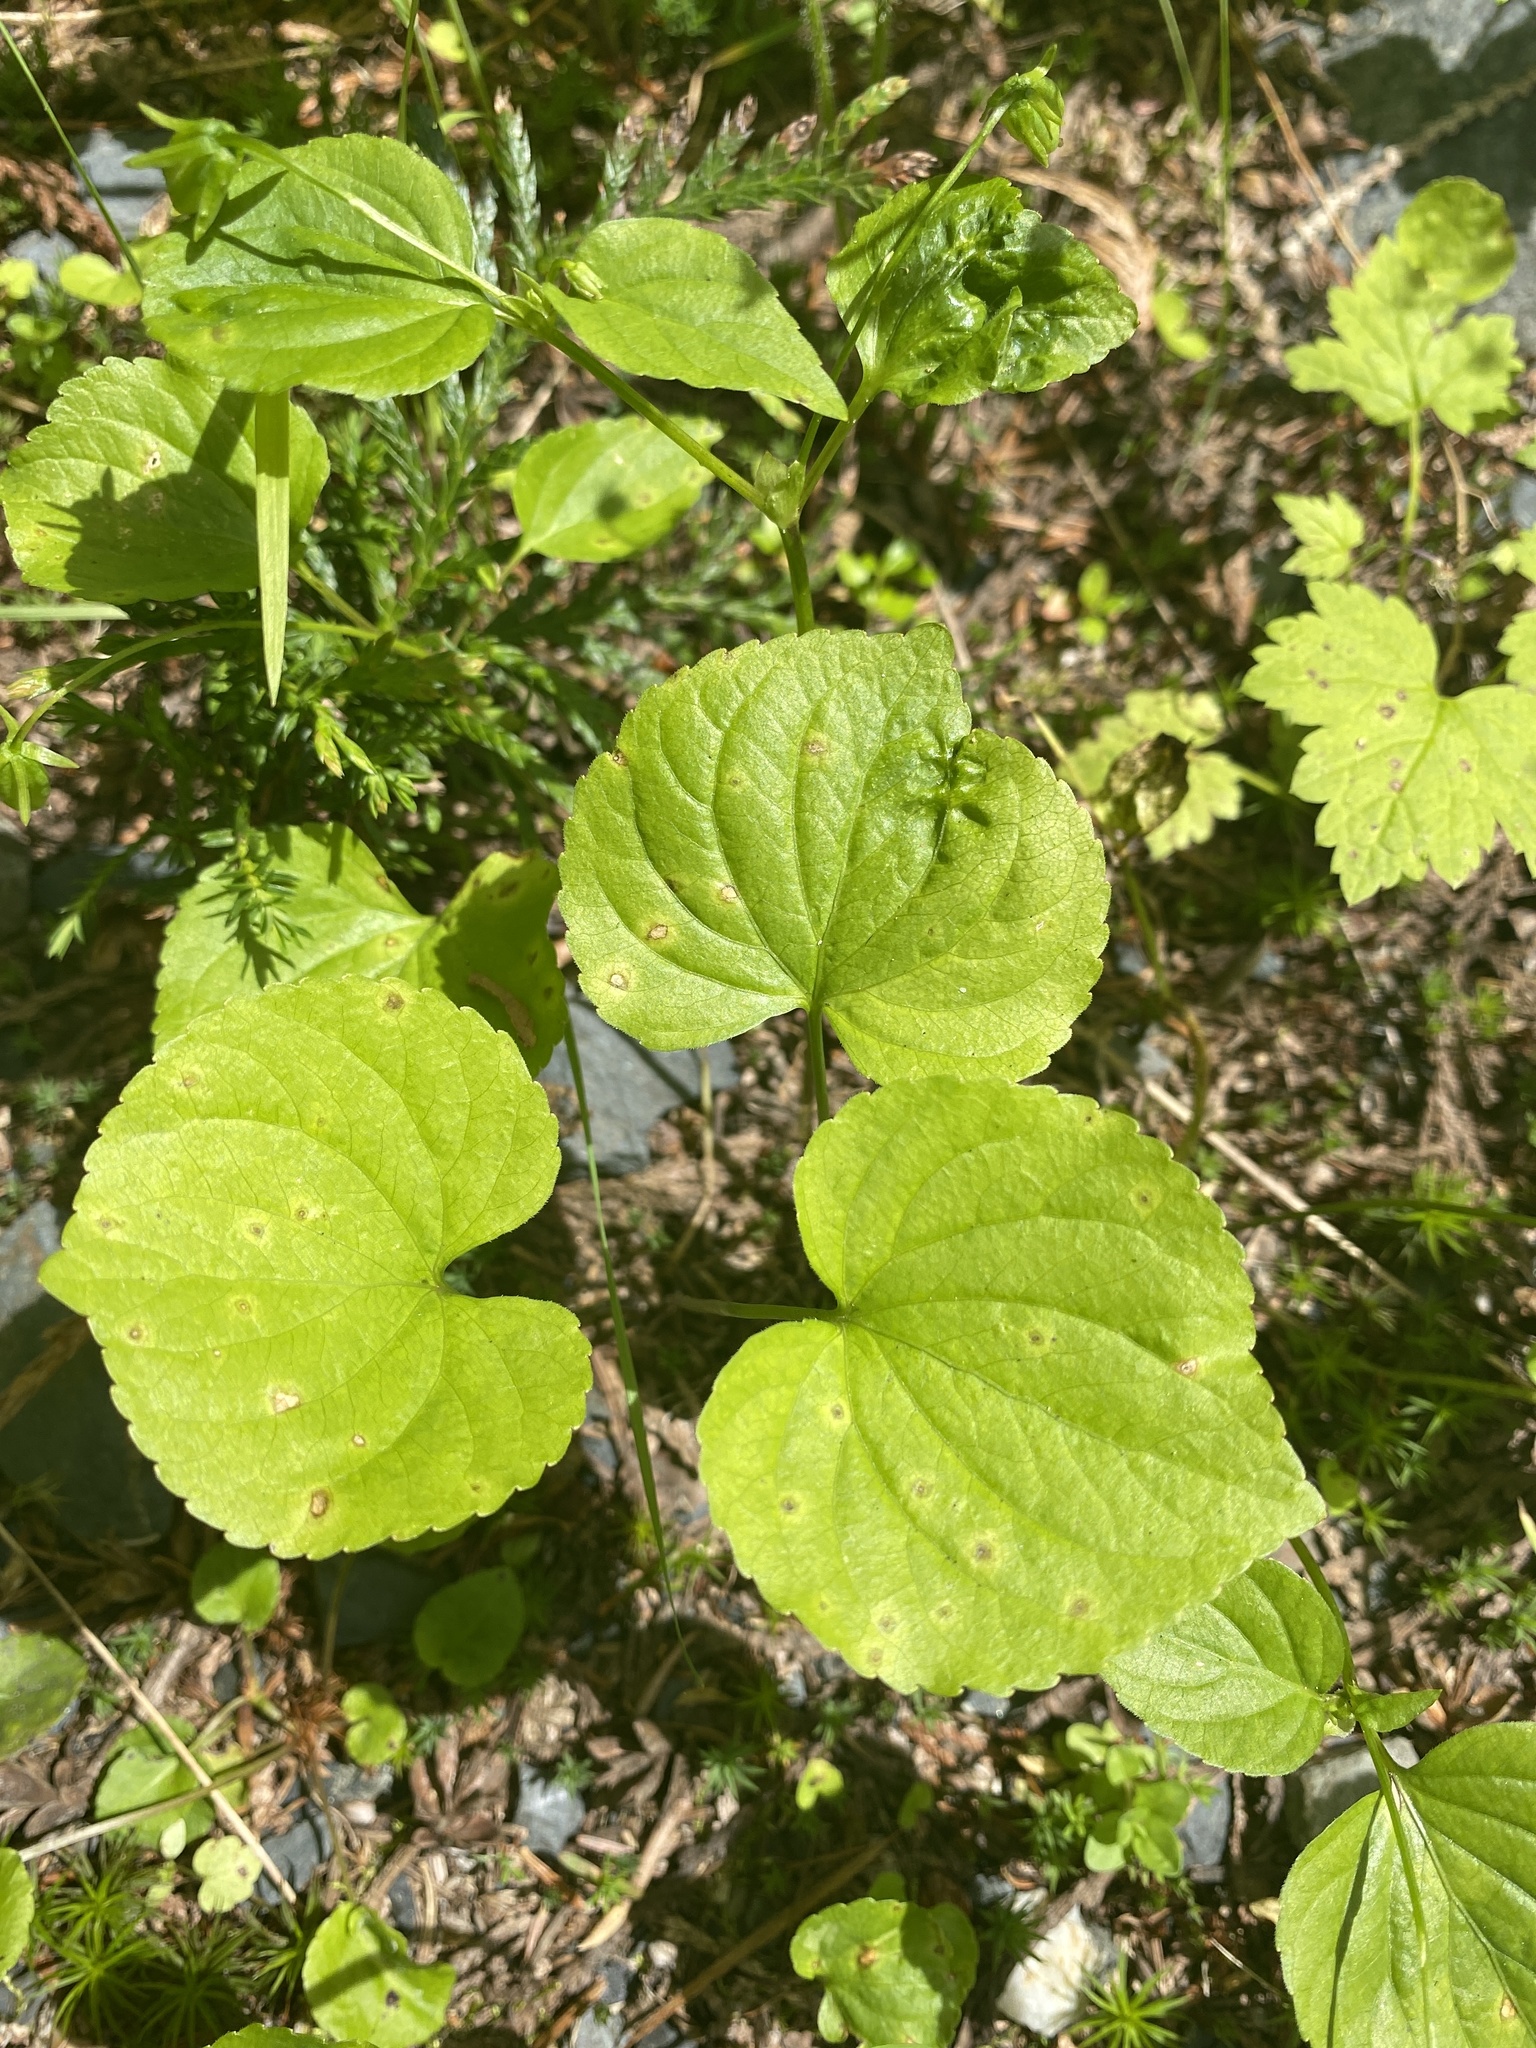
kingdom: Plantae
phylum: Tracheophyta
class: Magnoliopsida
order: Malpighiales
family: Violaceae
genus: Viola
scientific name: Viola glabella
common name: Stream violet
